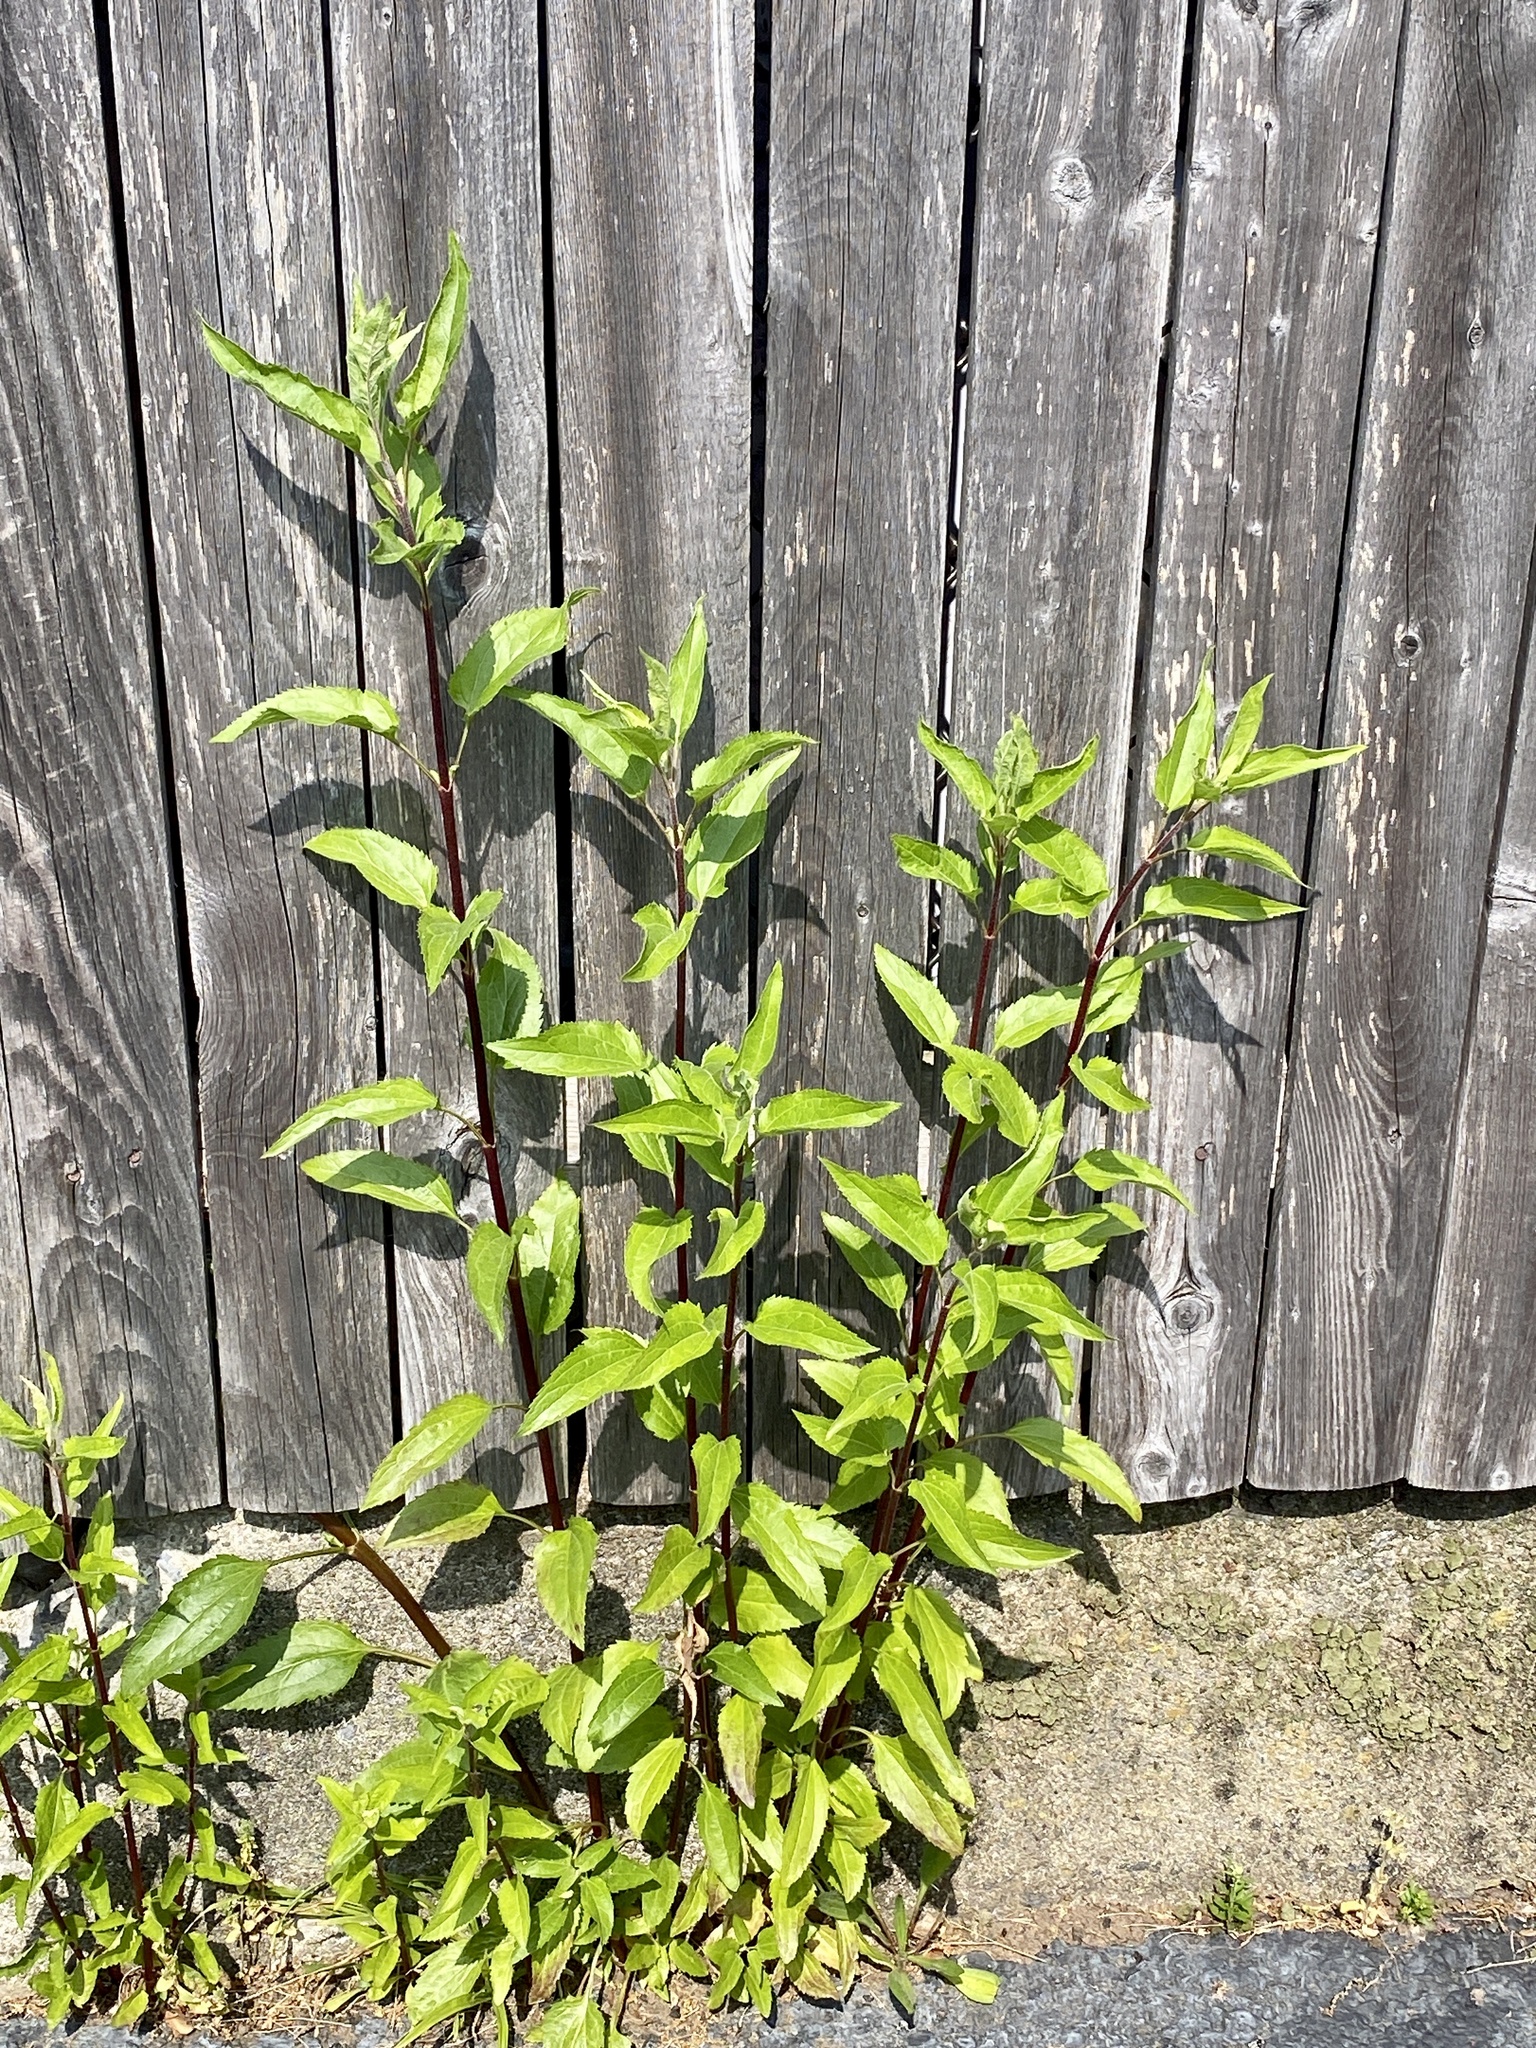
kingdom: Plantae
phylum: Tracheophyta
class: Magnoliopsida
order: Asterales
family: Asteraceae
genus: Eupatorium
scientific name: Eupatorium serotinum
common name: Late boneset
